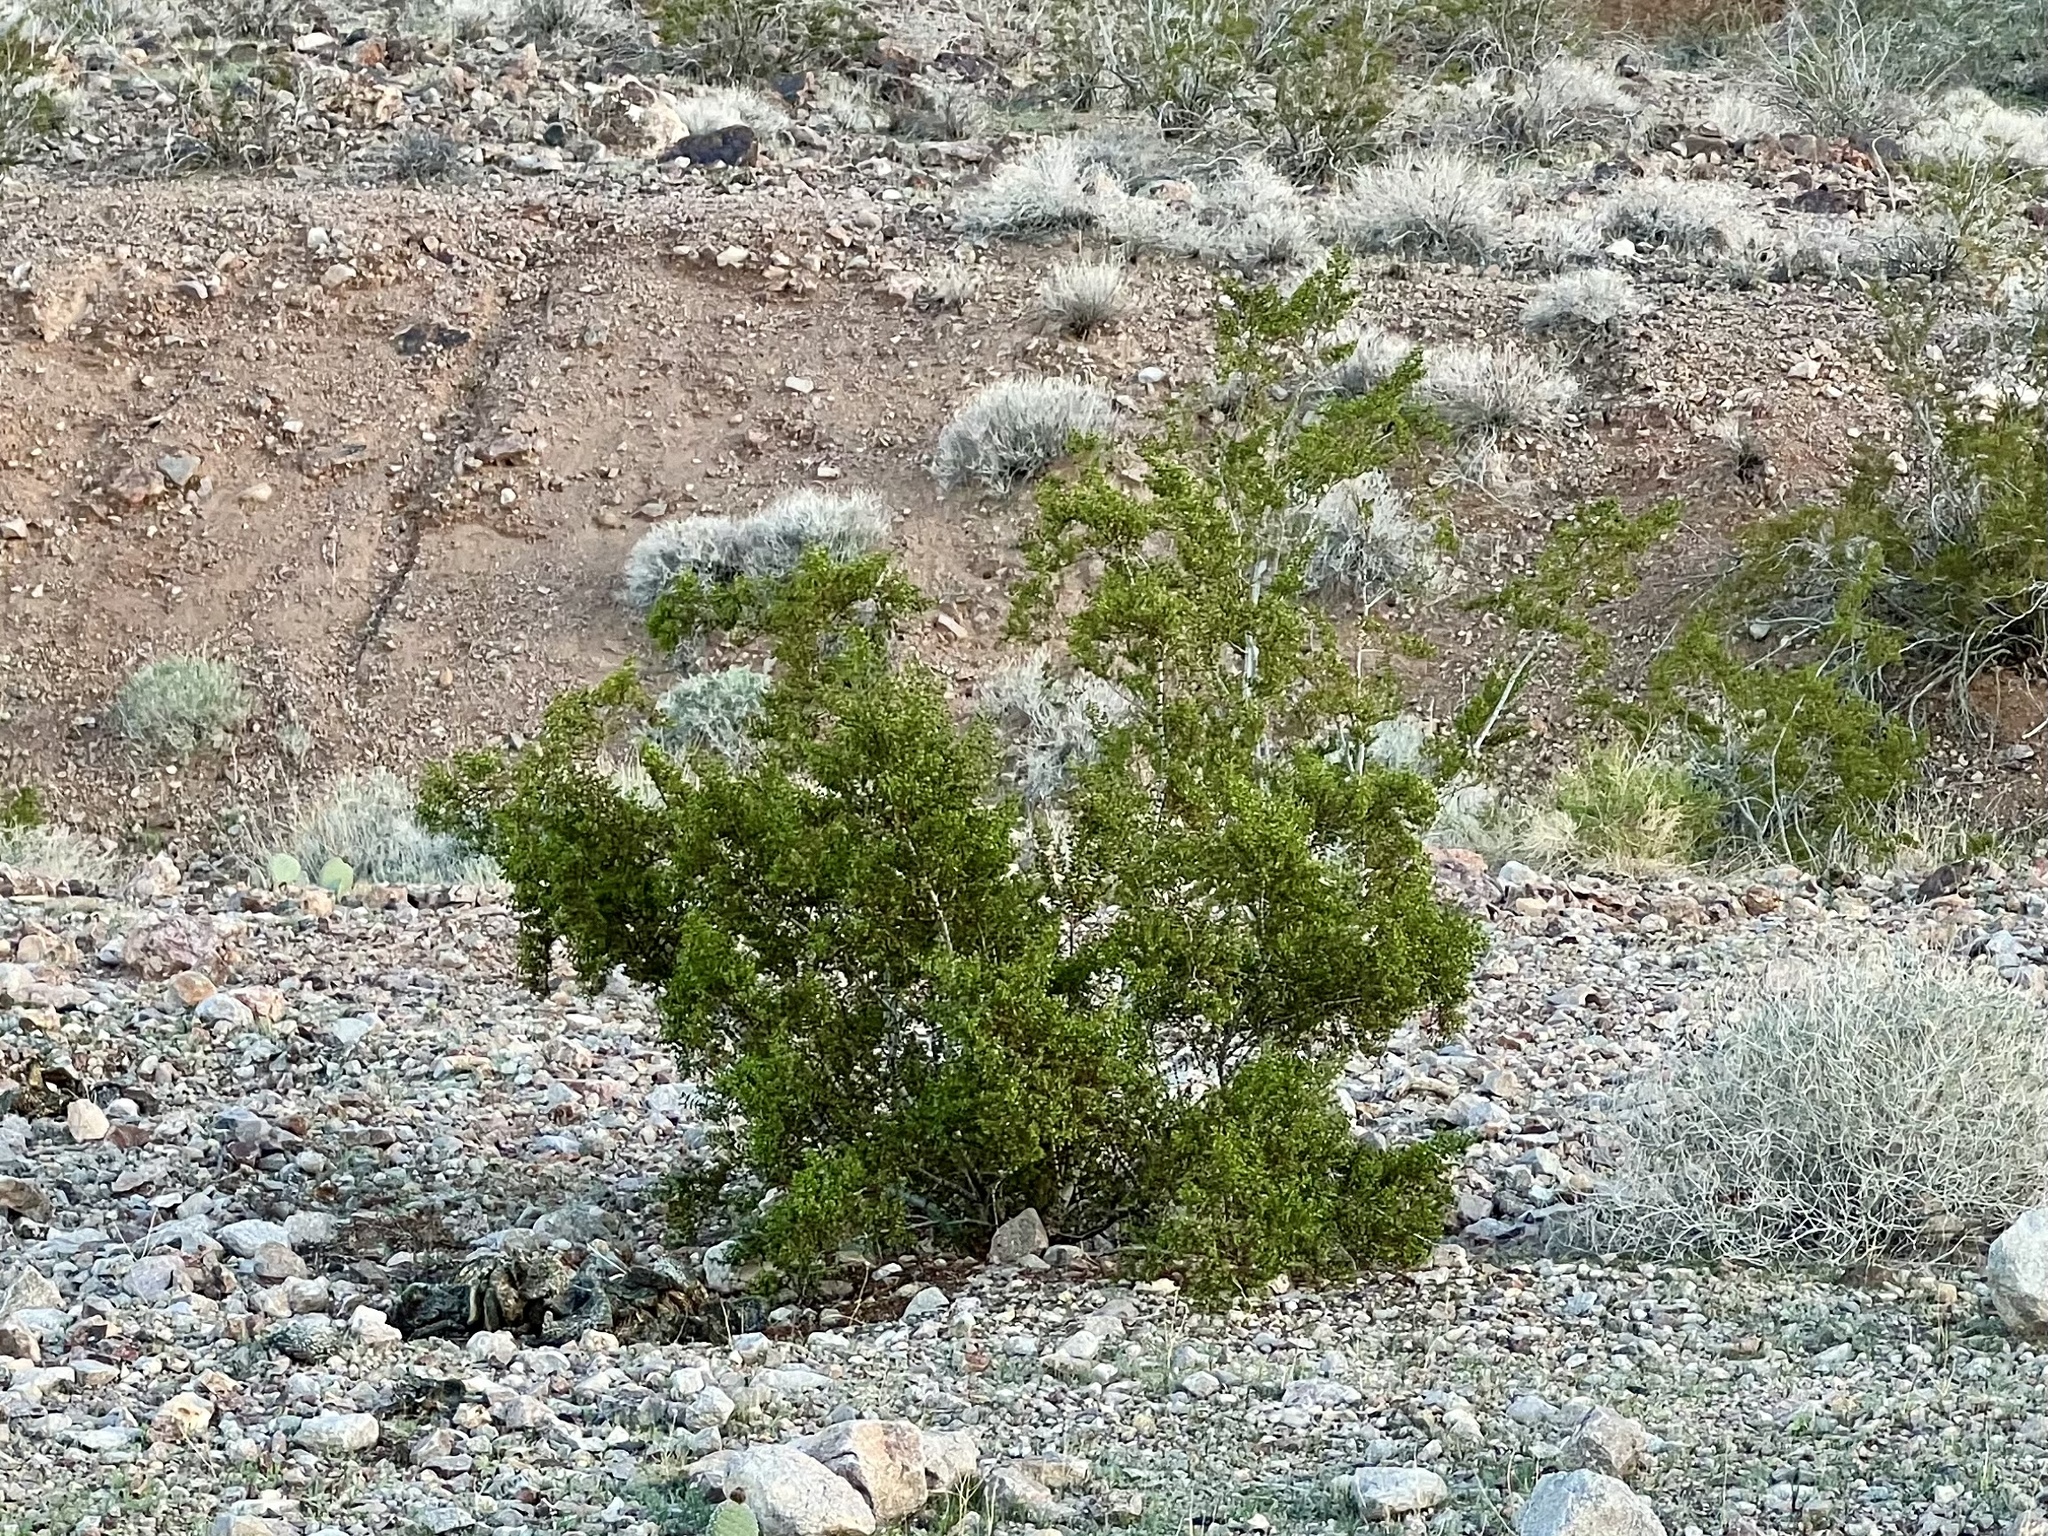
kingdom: Plantae
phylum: Tracheophyta
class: Magnoliopsida
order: Zygophyllales
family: Zygophyllaceae
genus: Larrea
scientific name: Larrea tridentata
